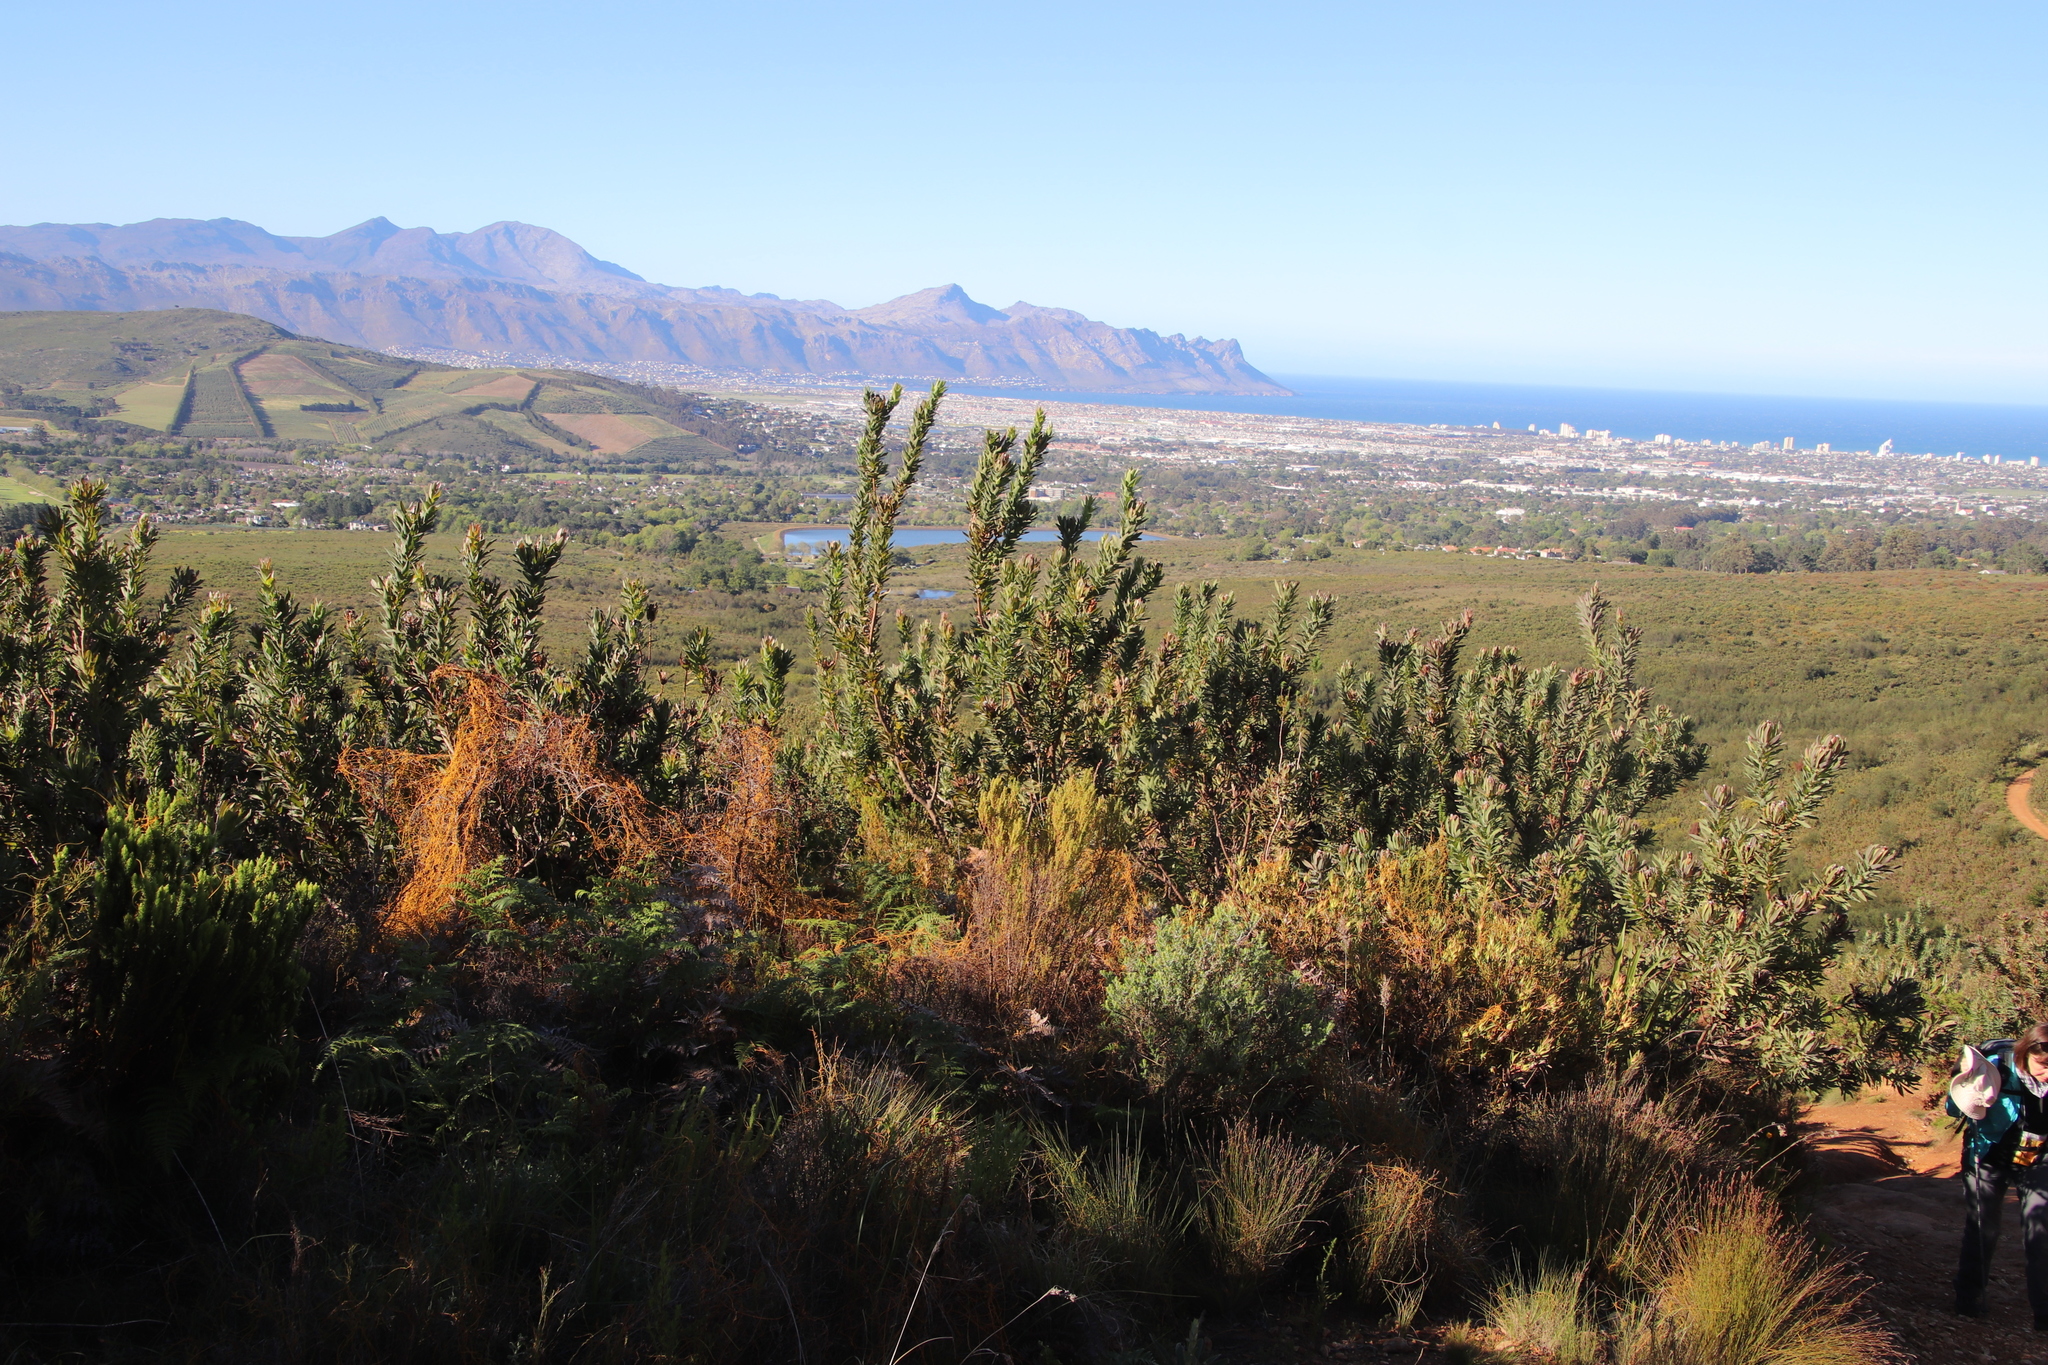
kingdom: Plantae
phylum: Tracheophyta
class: Magnoliopsida
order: Proteales
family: Proteaceae
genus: Protea
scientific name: Protea coronata
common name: Green sugarbush
